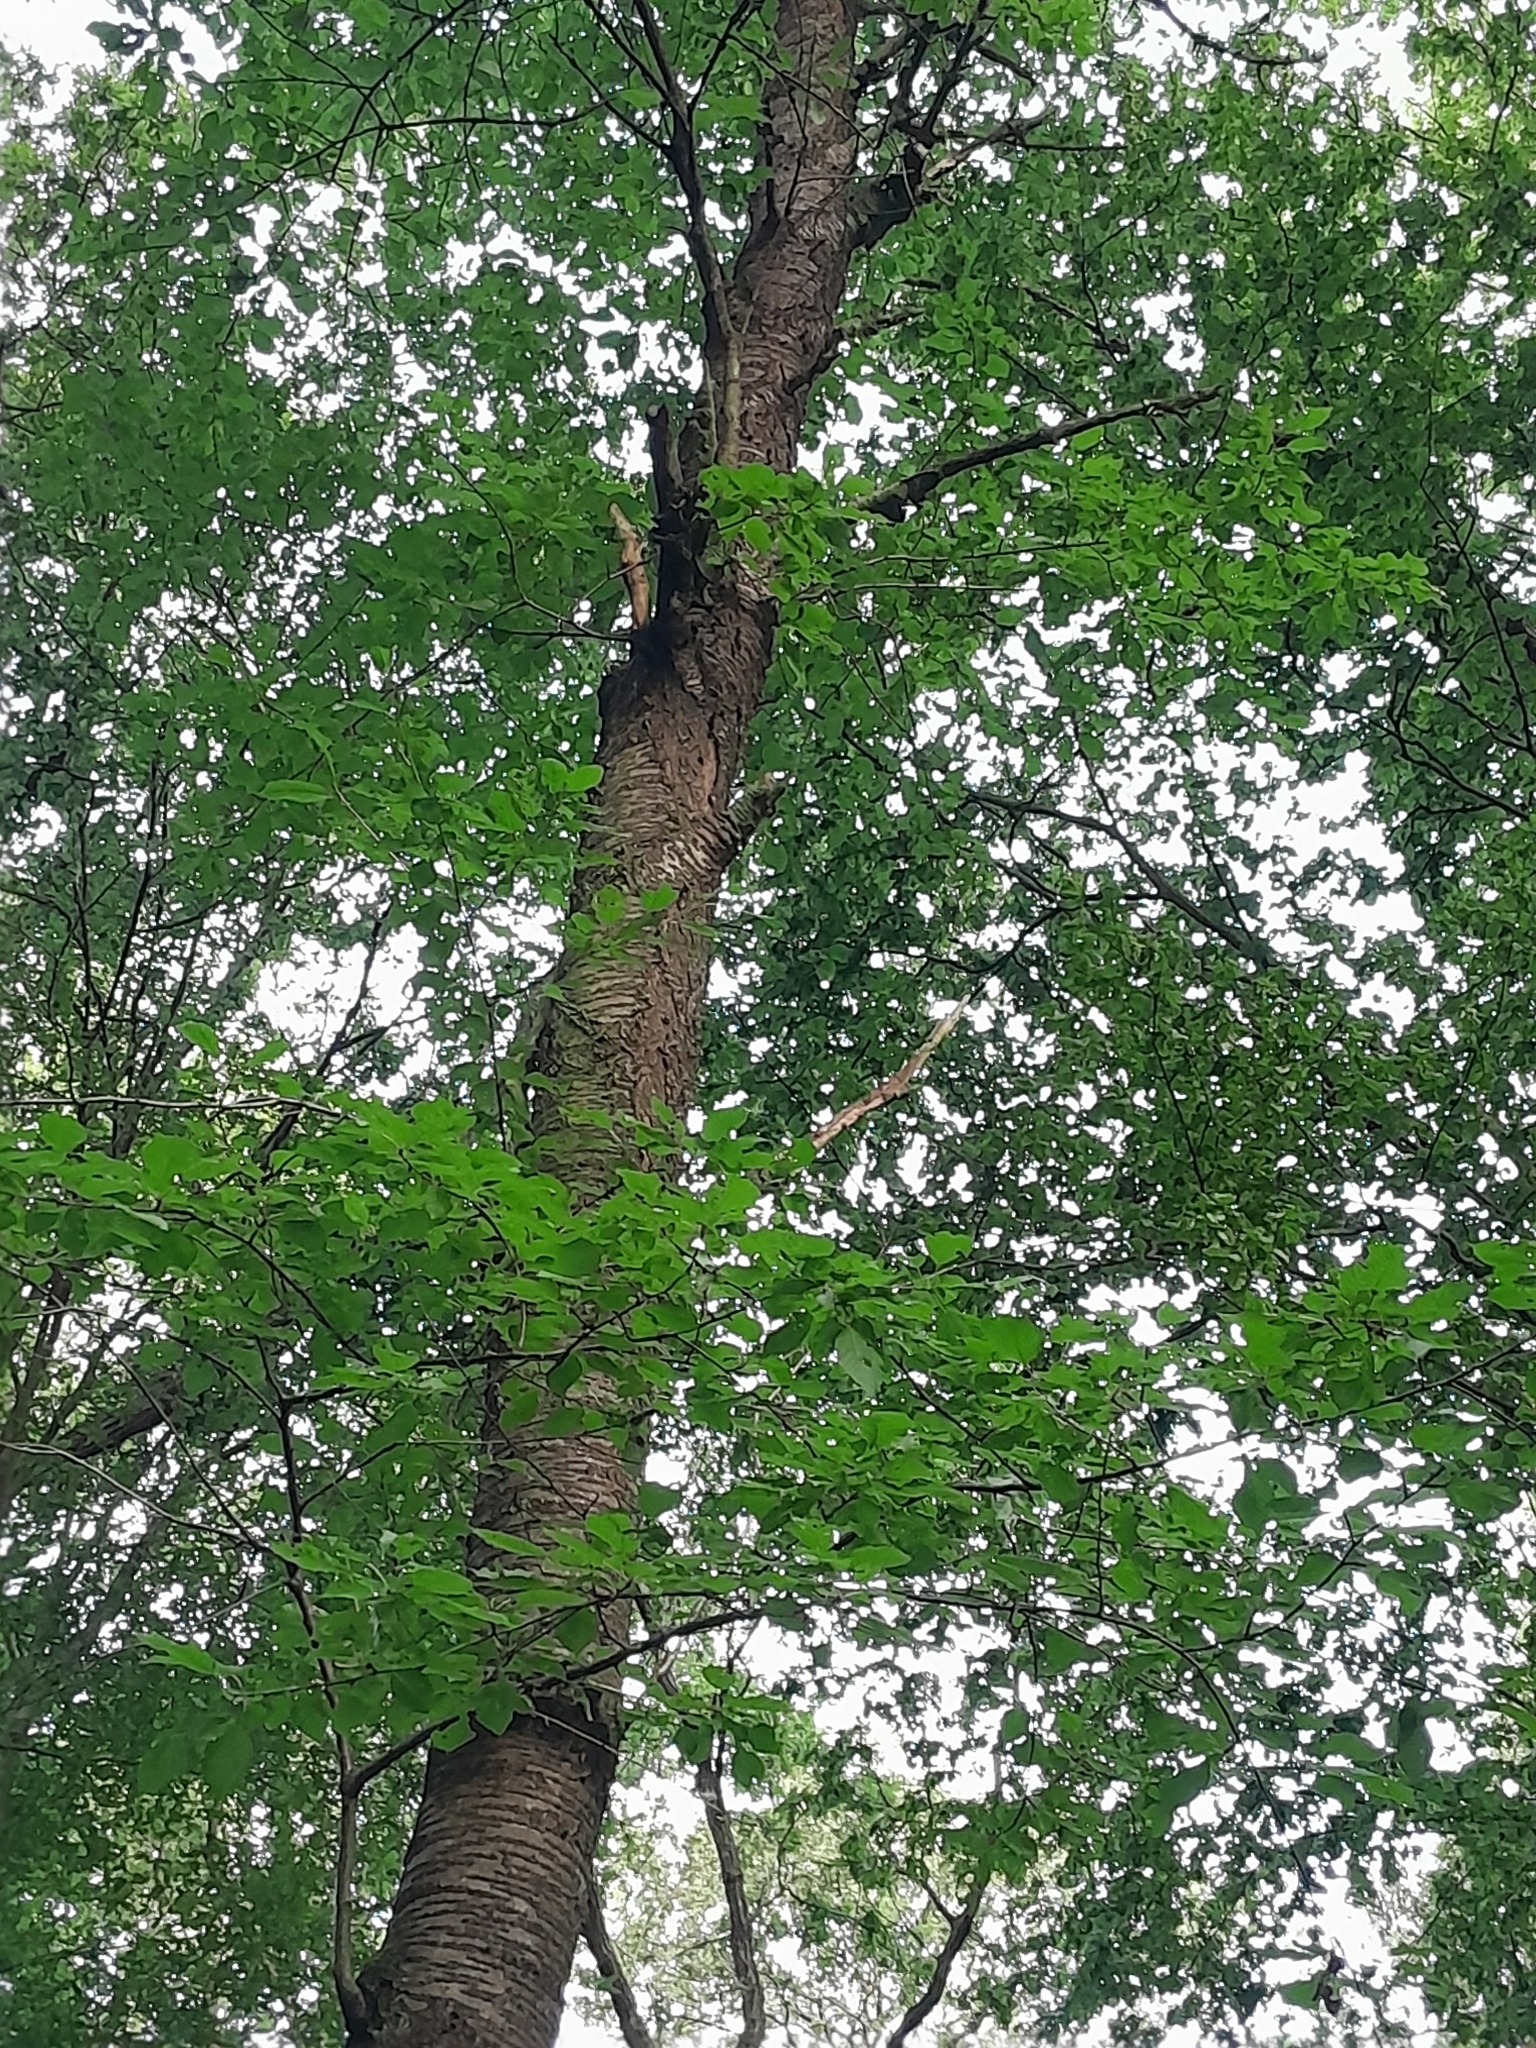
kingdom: Plantae
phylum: Tracheophyta
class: Magnoliopsida
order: Rosales
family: Rosaceae
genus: Prunus
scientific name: Prunus avium
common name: Sweet cherry
